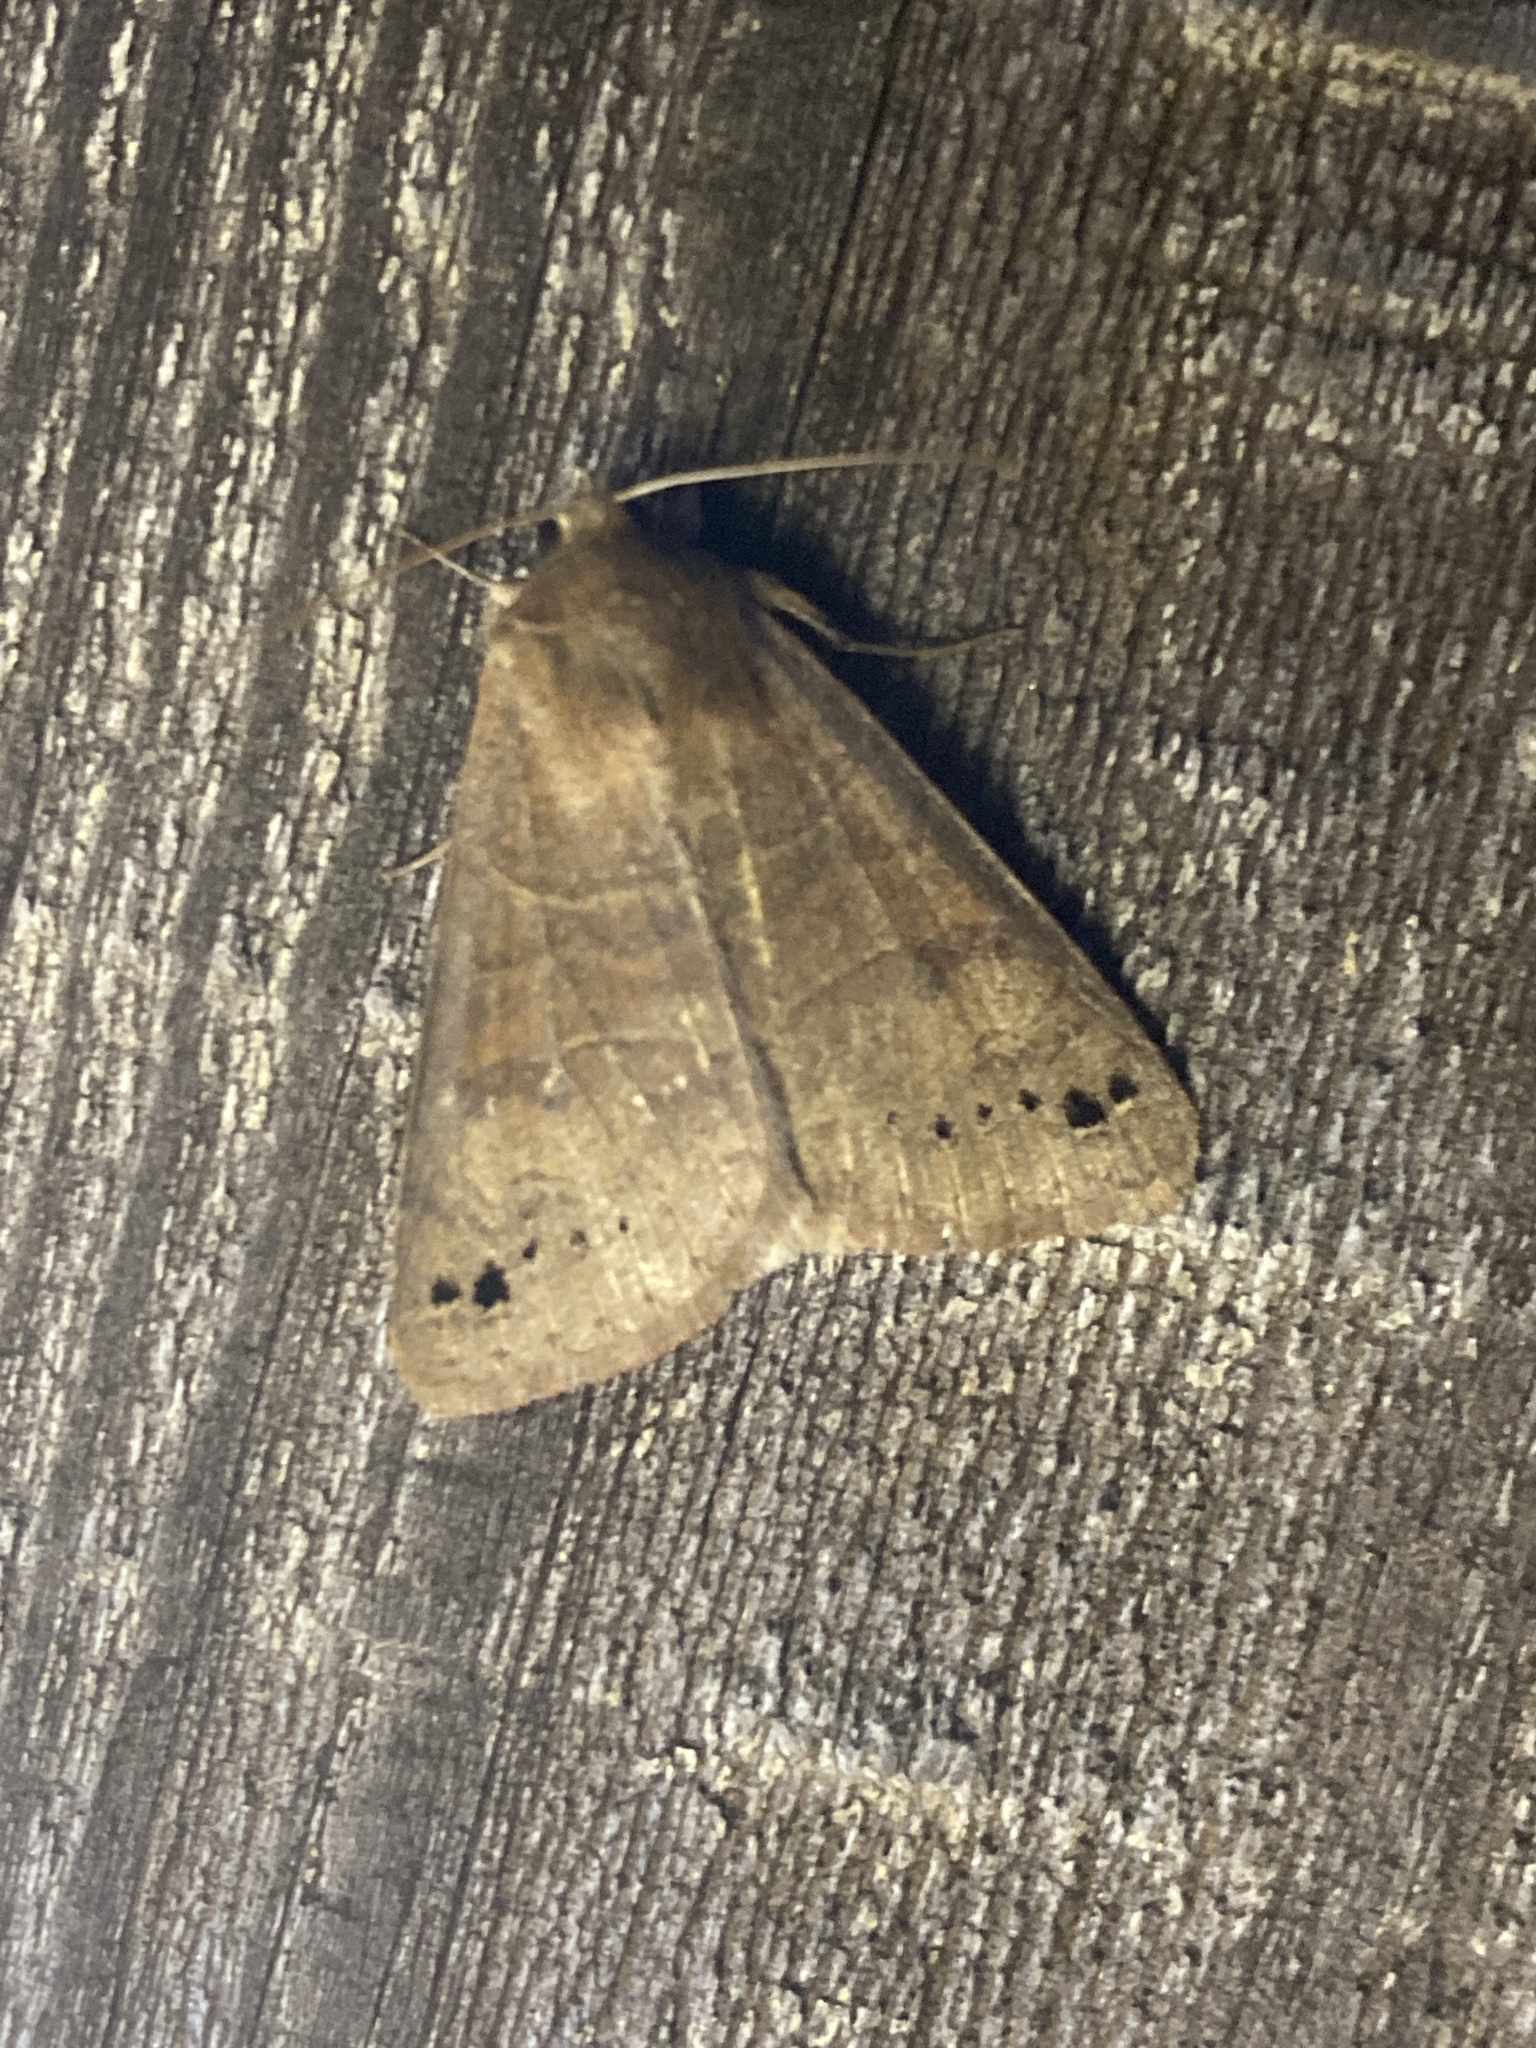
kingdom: Animalia
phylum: Arthropoda
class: Insecta
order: Lepidoptera
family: Erebidae
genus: Cissusa
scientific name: Cissusa spadix
